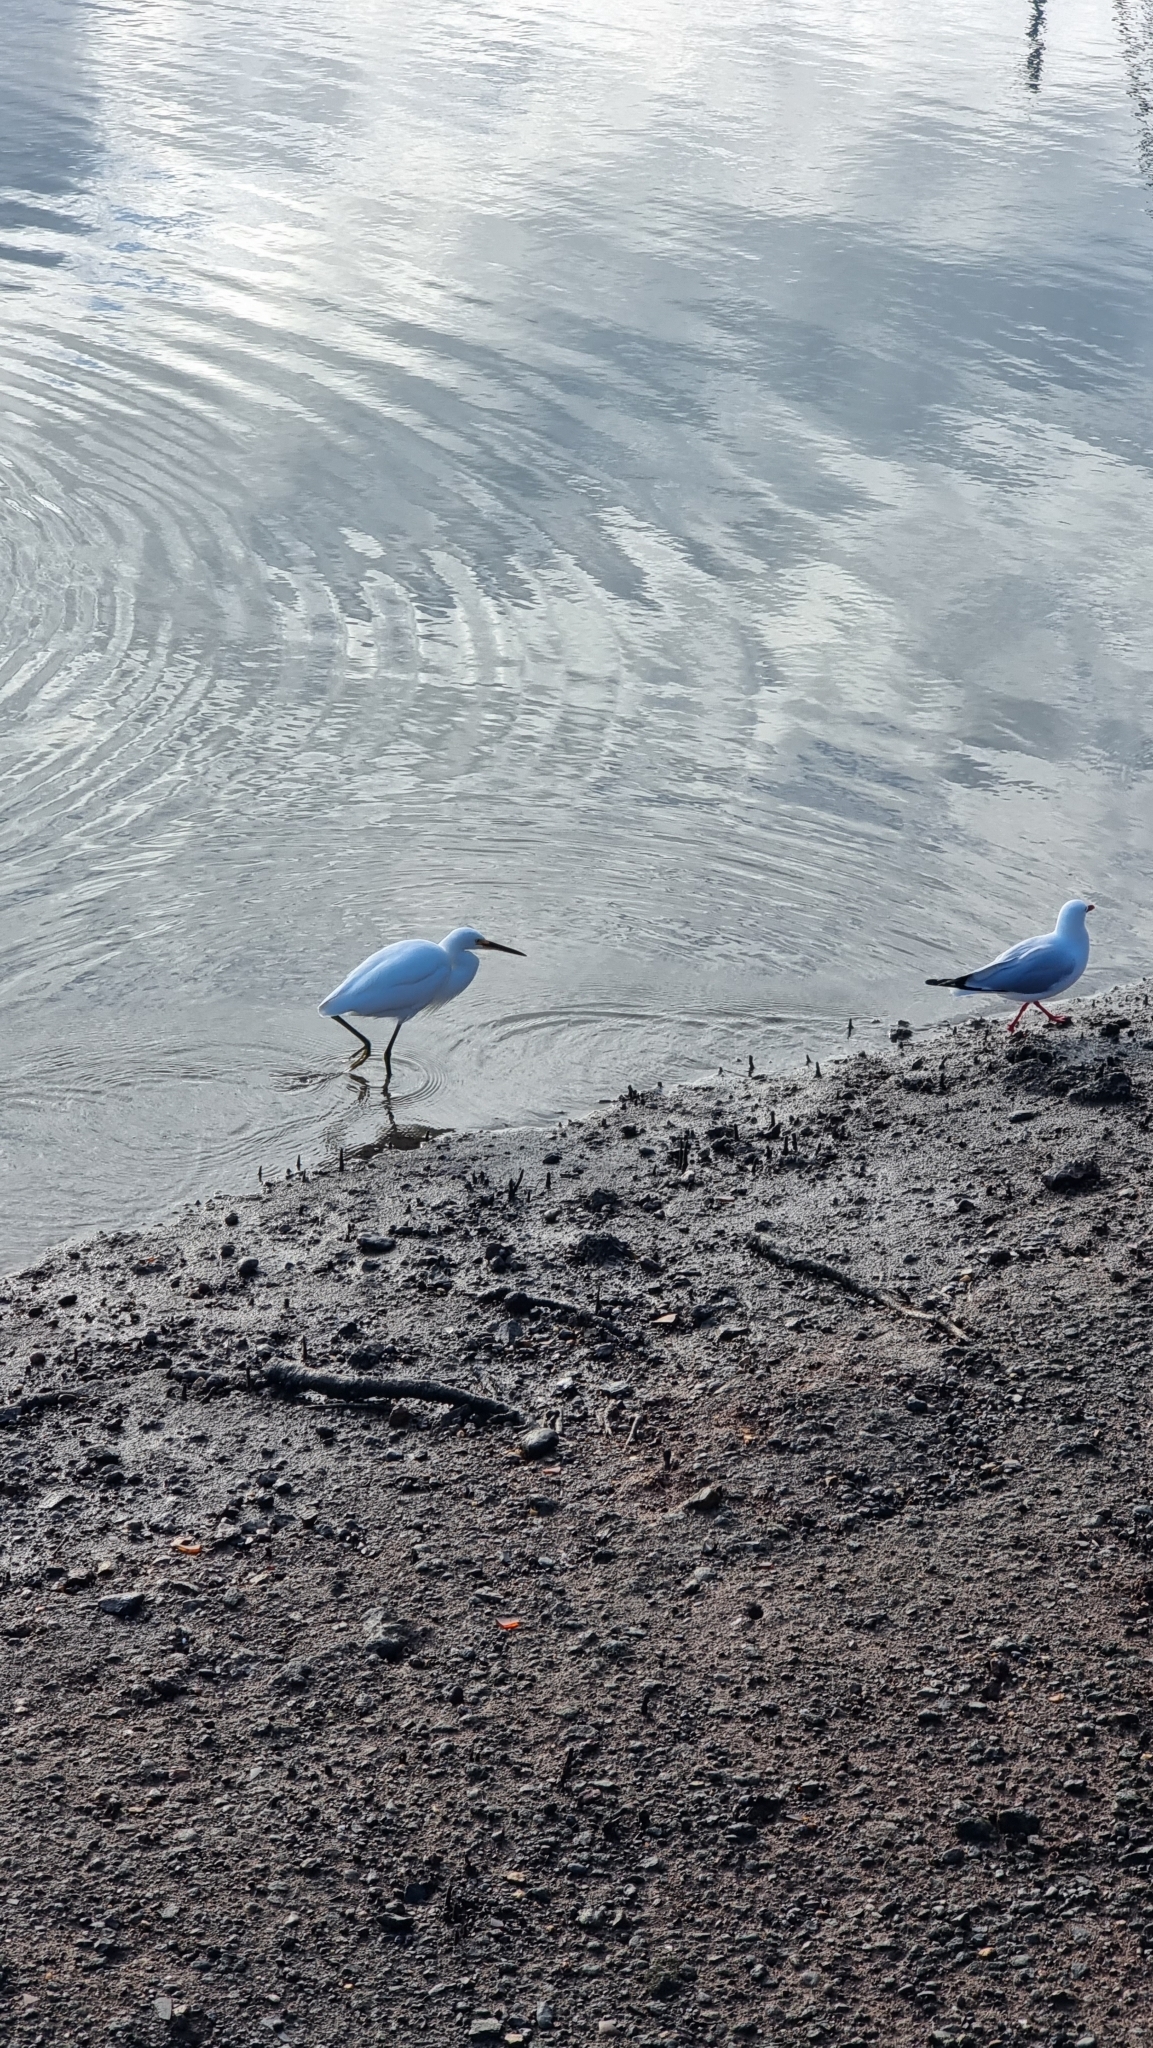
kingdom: Animalia
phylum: Chordata
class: Aves
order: Pelecaniformes
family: Ardeidae
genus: Egretta
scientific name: Egretta garzetta
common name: Little egret
